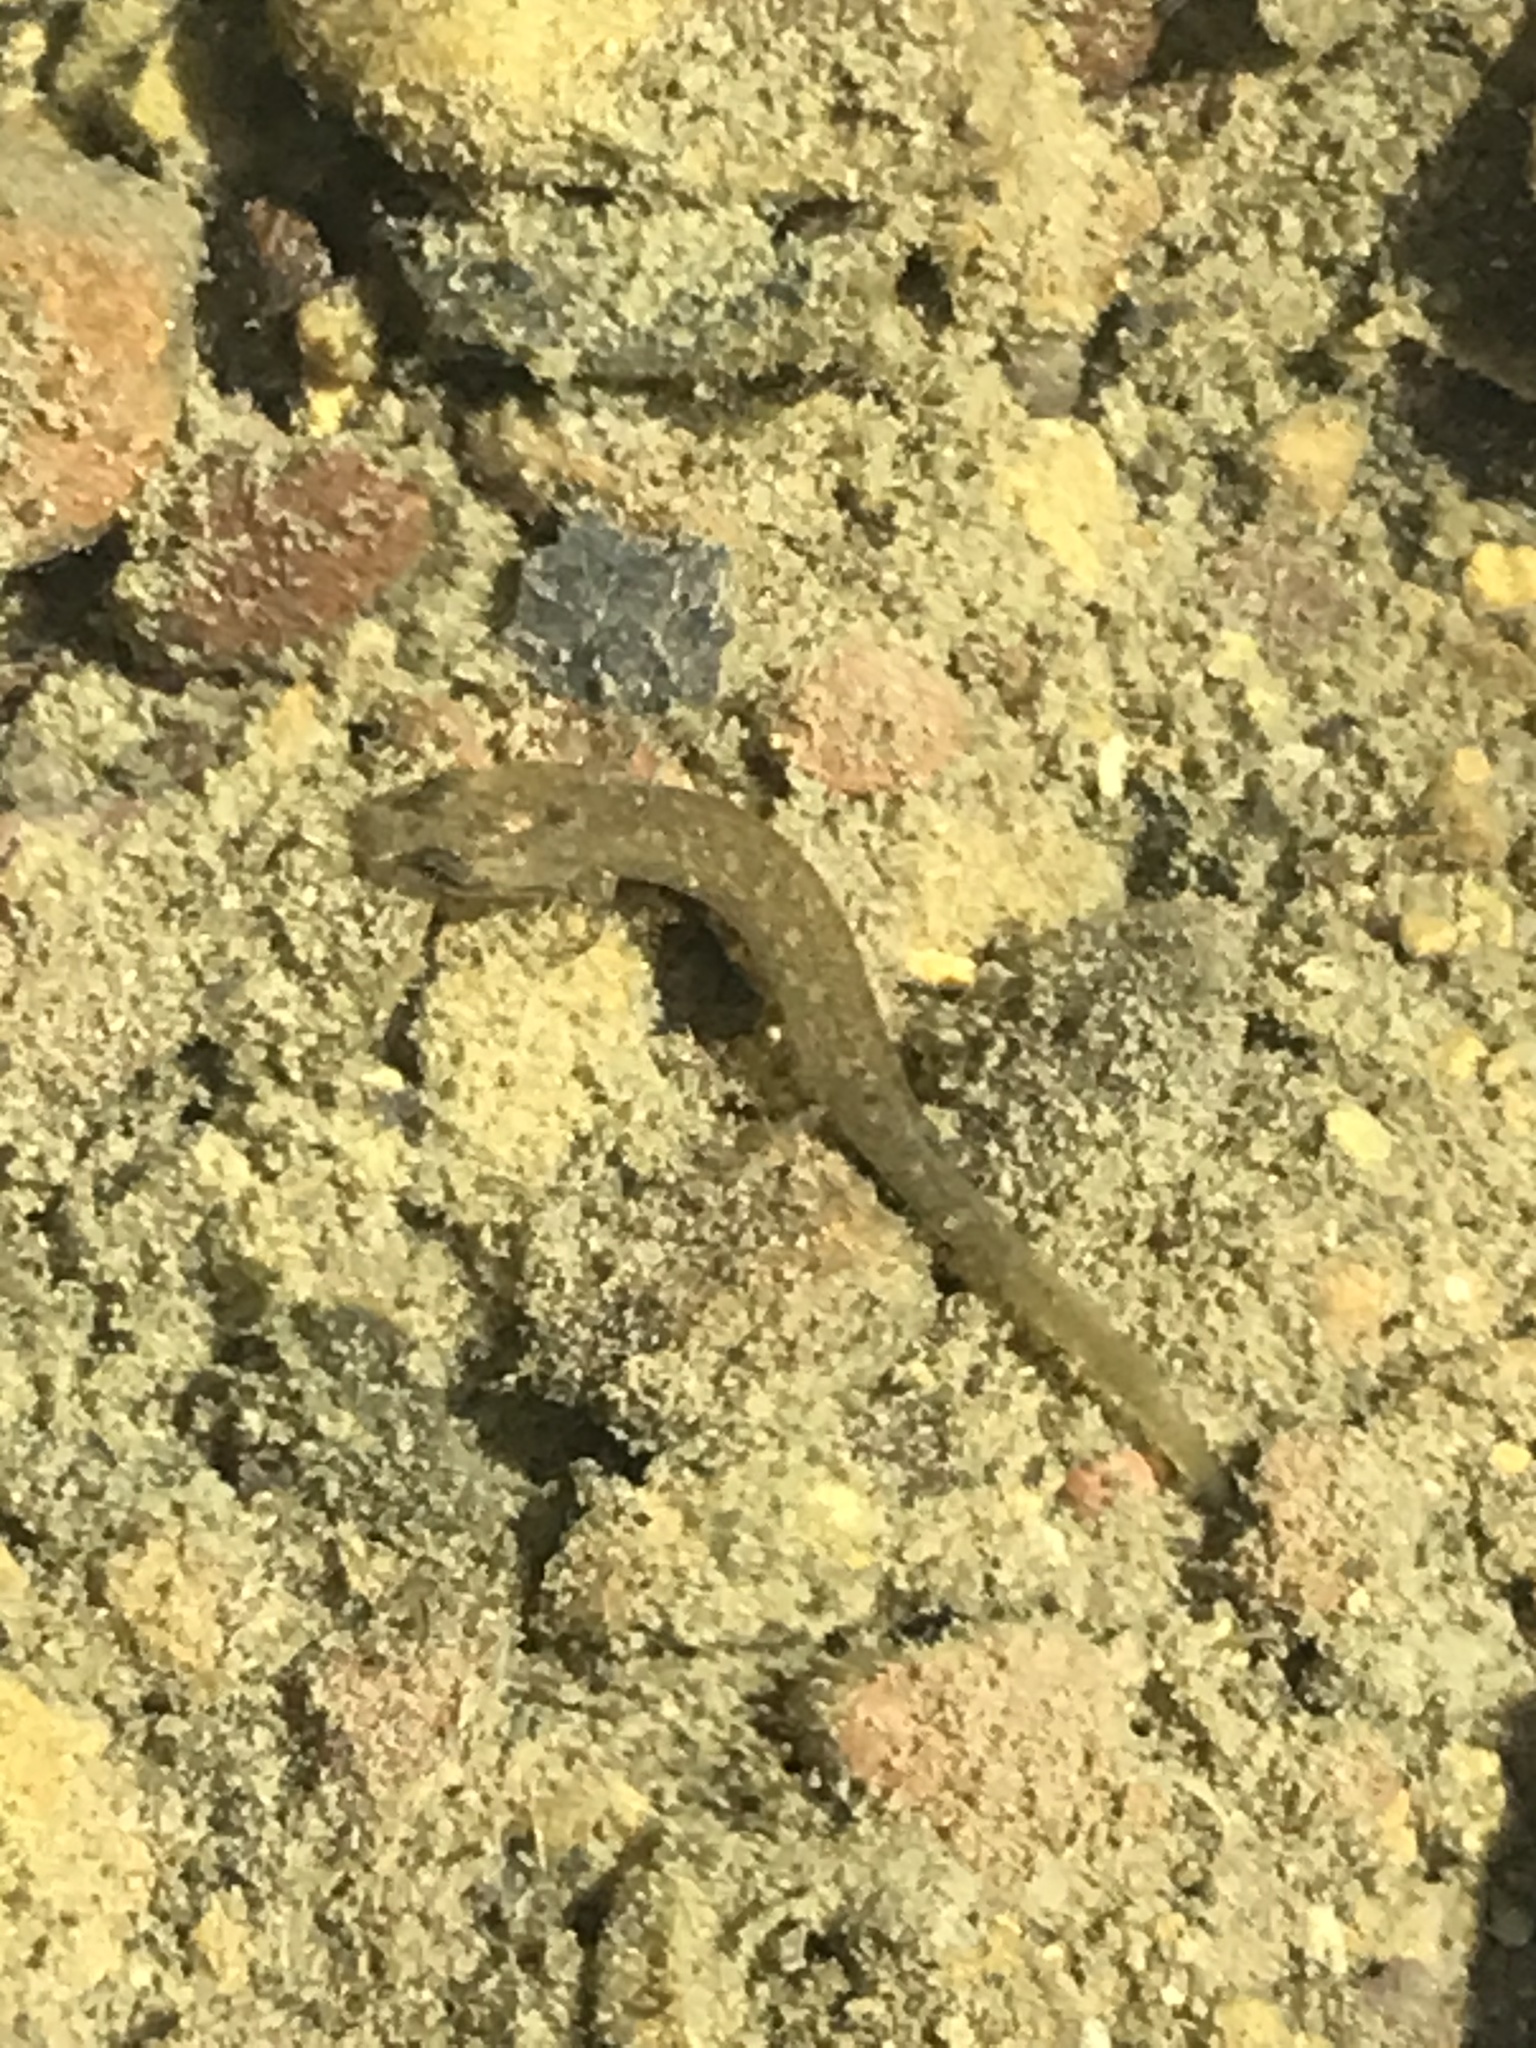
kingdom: Animalia
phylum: Chordata
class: Amphibia
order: Caudata
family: Plethodontidae
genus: Eurycea
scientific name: Eurycea cirrigera
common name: Southern two-lined salamander
